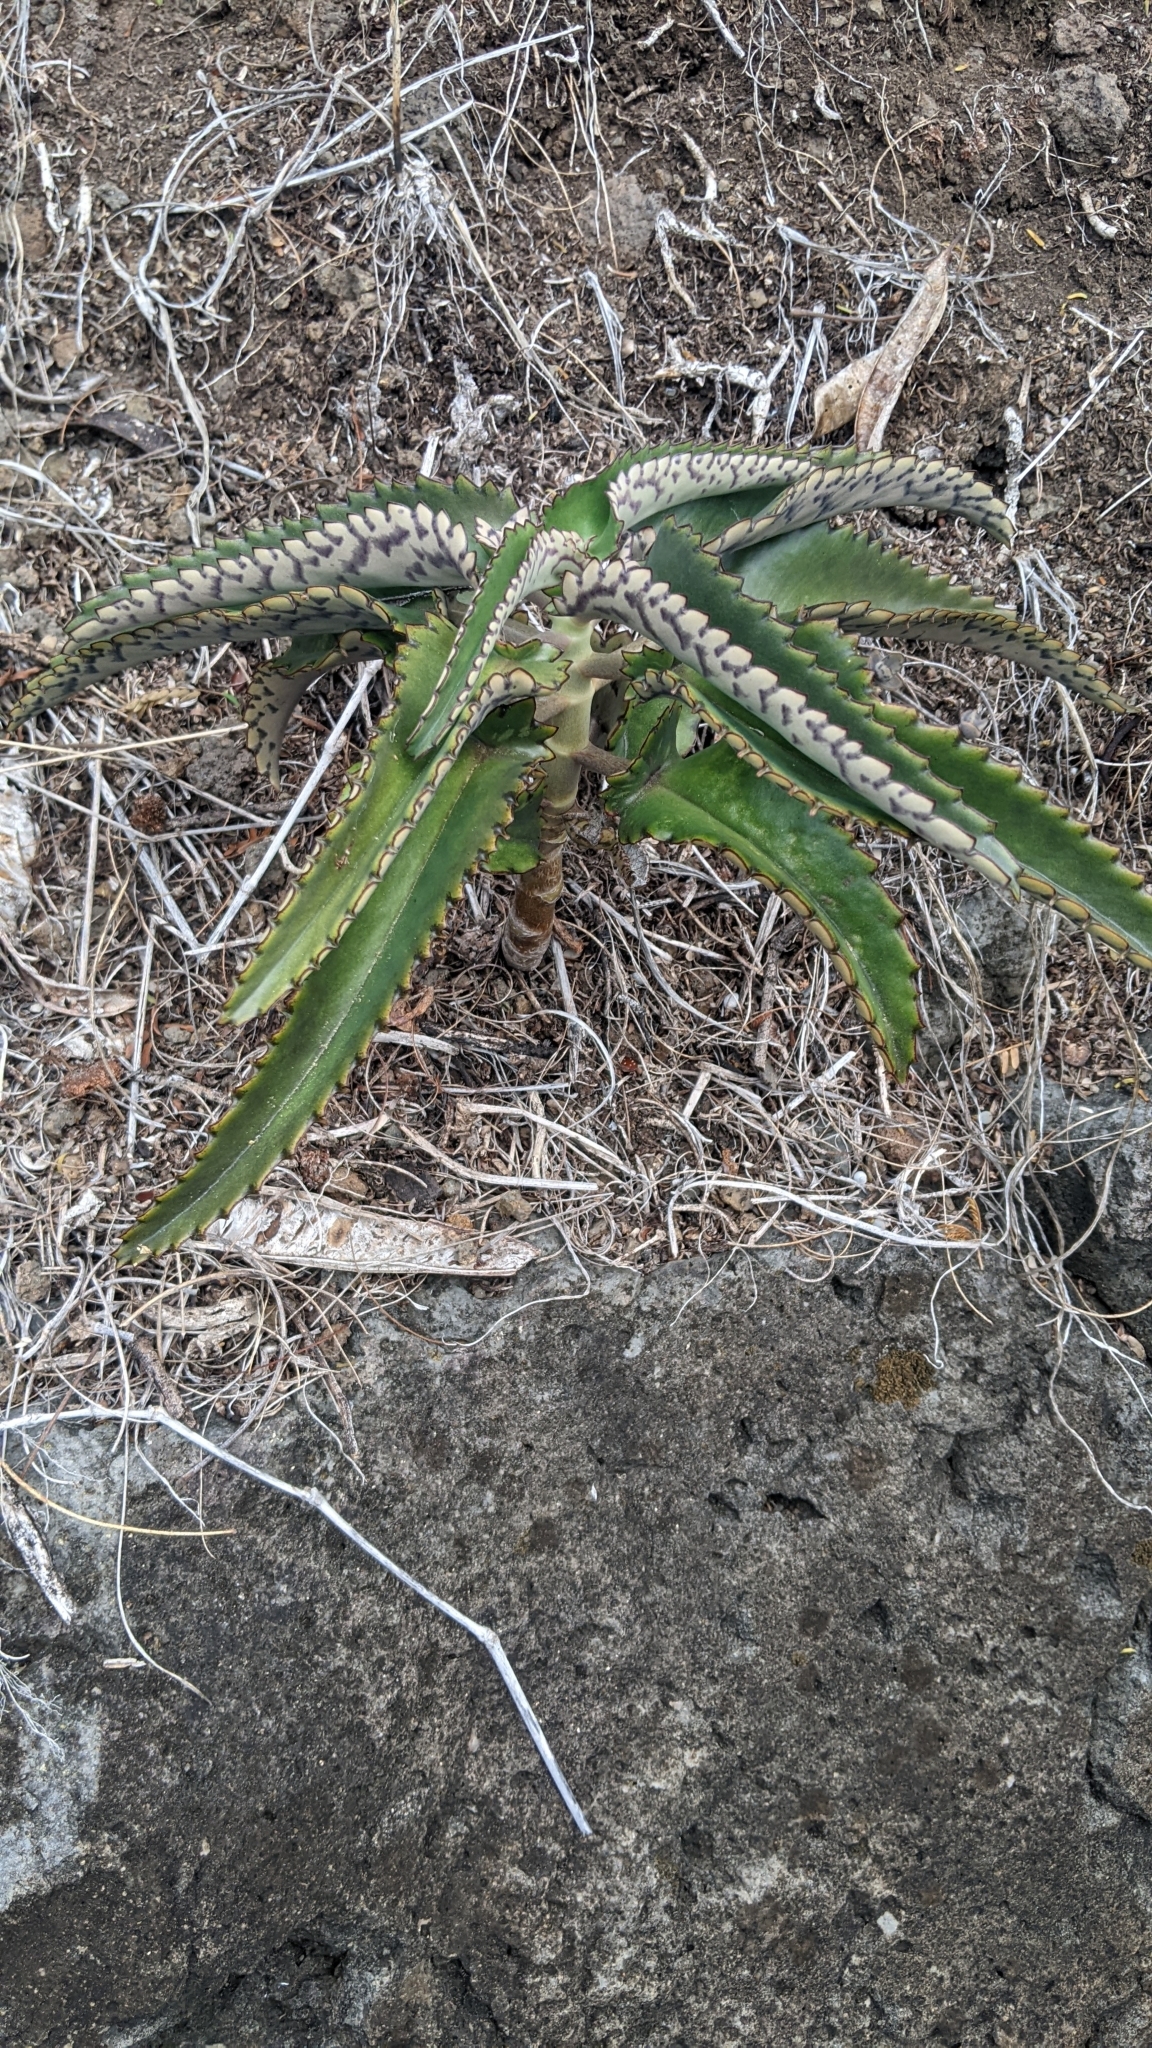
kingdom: Plantae
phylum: Tracheophyta
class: Magnoliopsida
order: Saxifragales
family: Crassulaceae
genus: Kalanchoe
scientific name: Kalanchoe daigremontiana
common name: Devil's backbone
